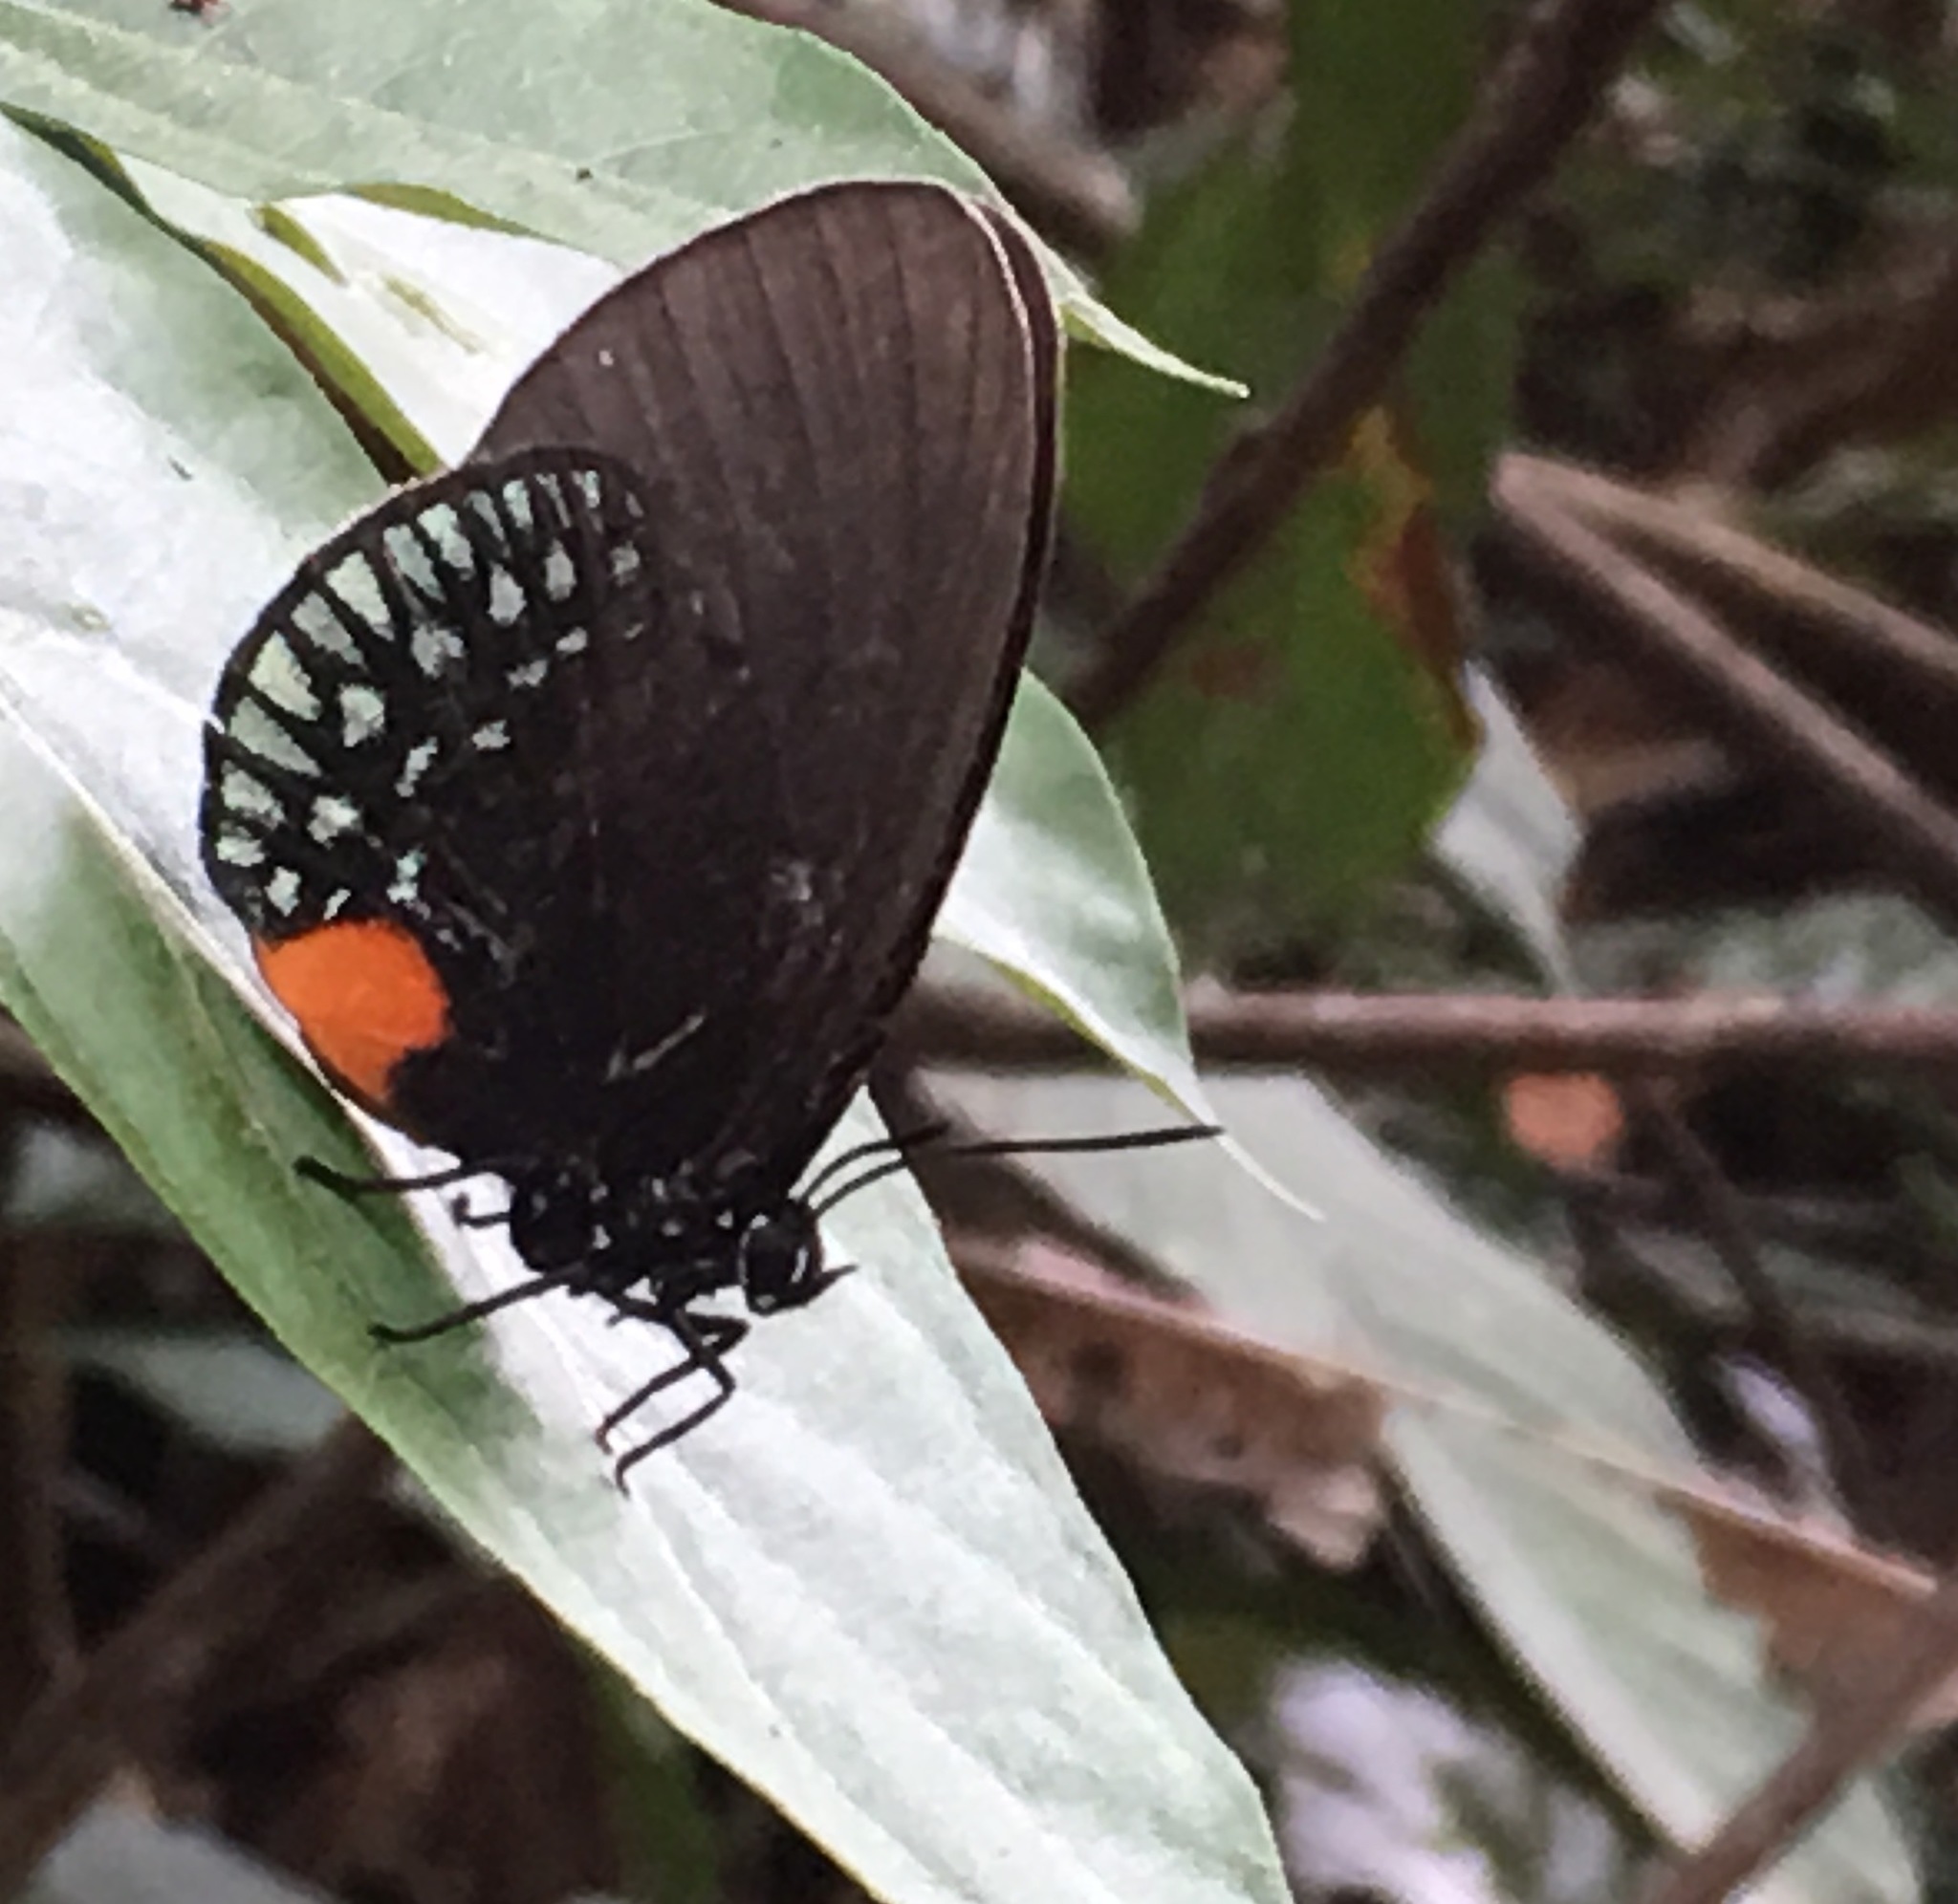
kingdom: Animalia
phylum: Arthropoda
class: Insecta
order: Lepidoptera
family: Lycaenidae
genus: Eumaeus
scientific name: Eumaeus toxana
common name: Toxana
